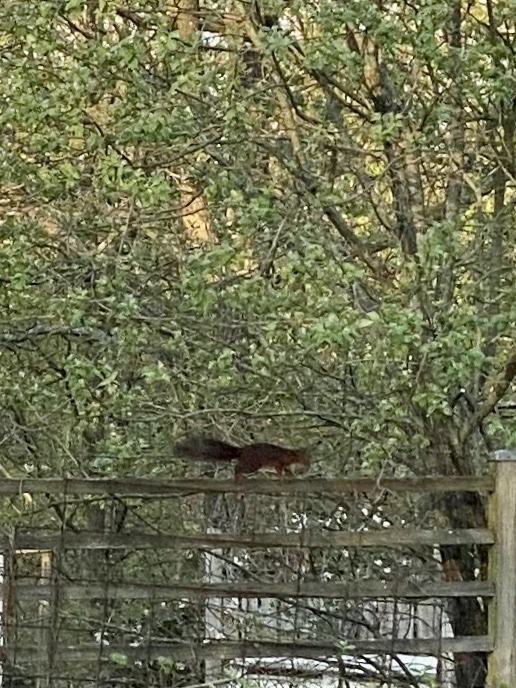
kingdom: Animalia
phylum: Chordata
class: Mammalia
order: Rodentia
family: Sciuridae
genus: Sciurus
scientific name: Sciurus vulgaris
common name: Eurasian red squirrel
